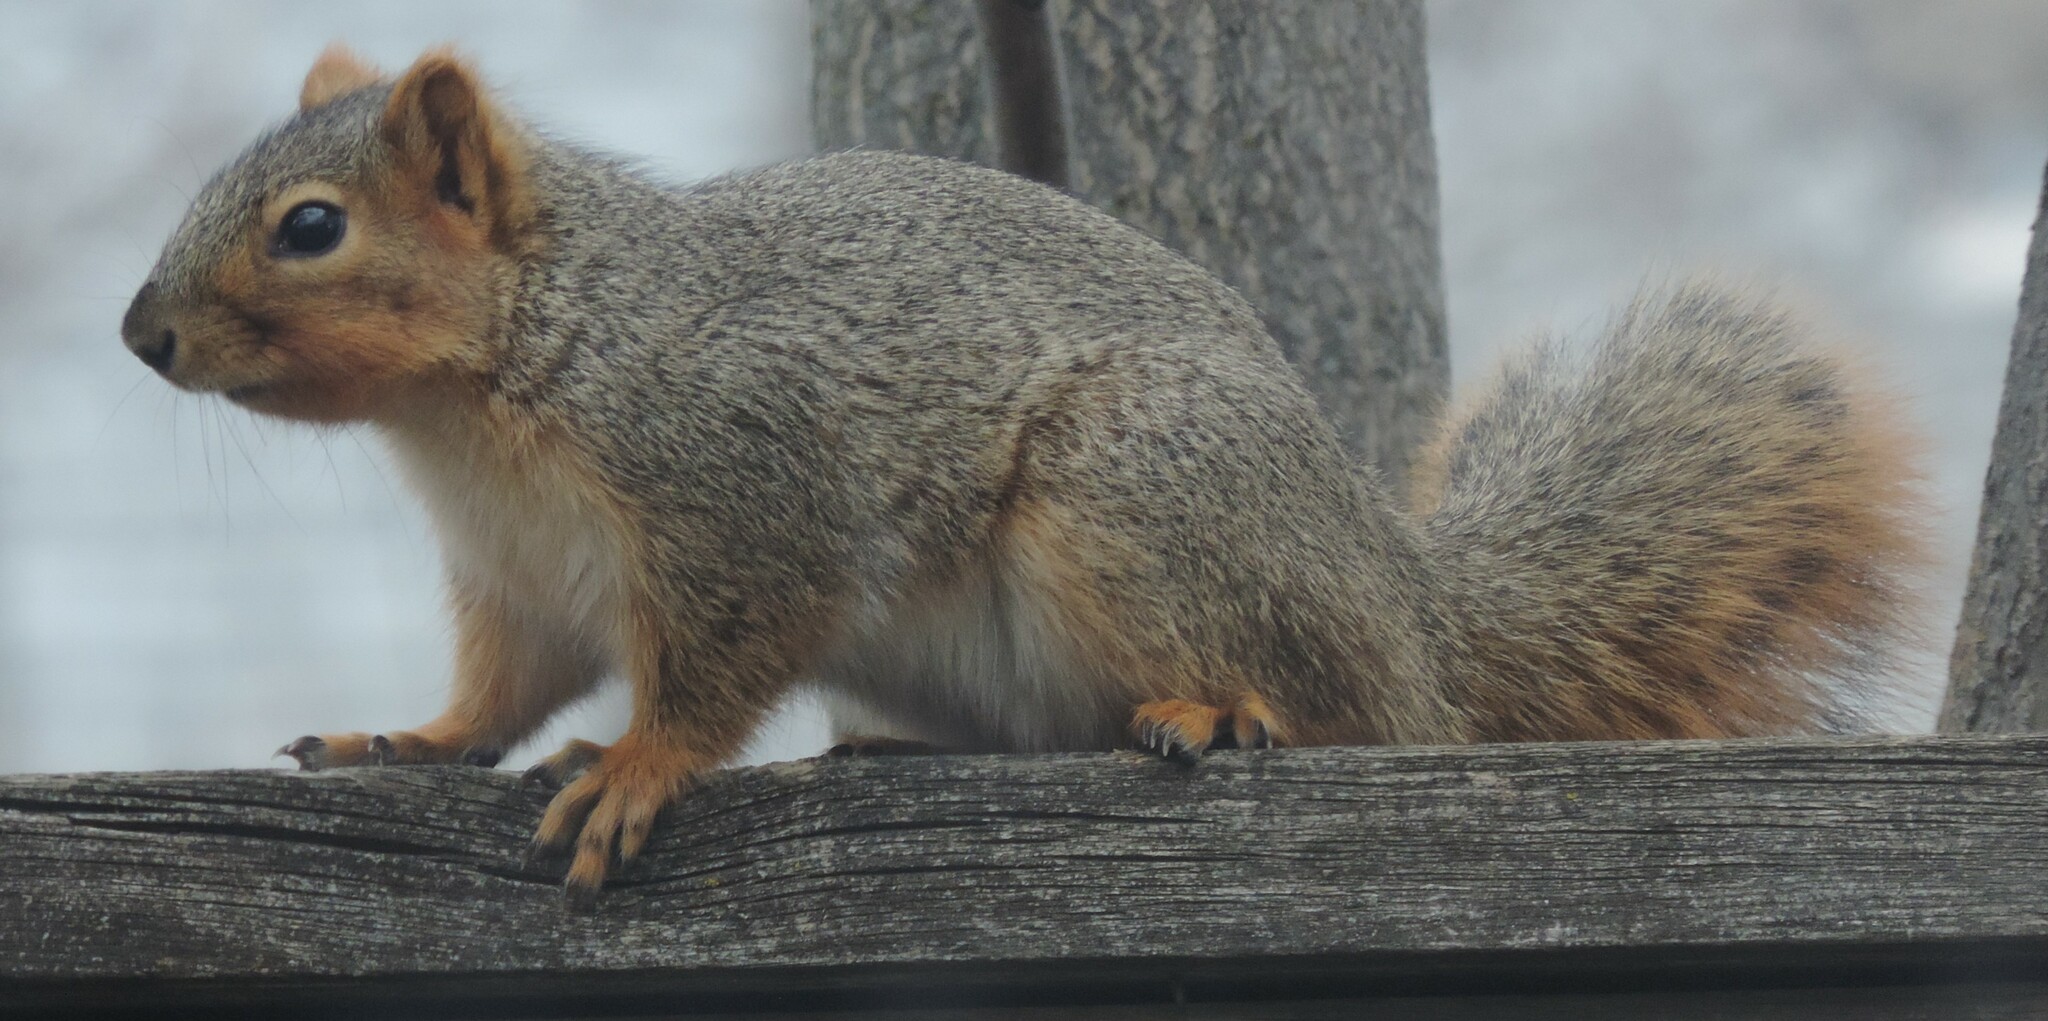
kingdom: Animalia
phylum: Chordata
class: Mammalia
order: Rodentia
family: Sciuridae
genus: Sciurus
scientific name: Sciurus niger
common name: Fox squirrel
